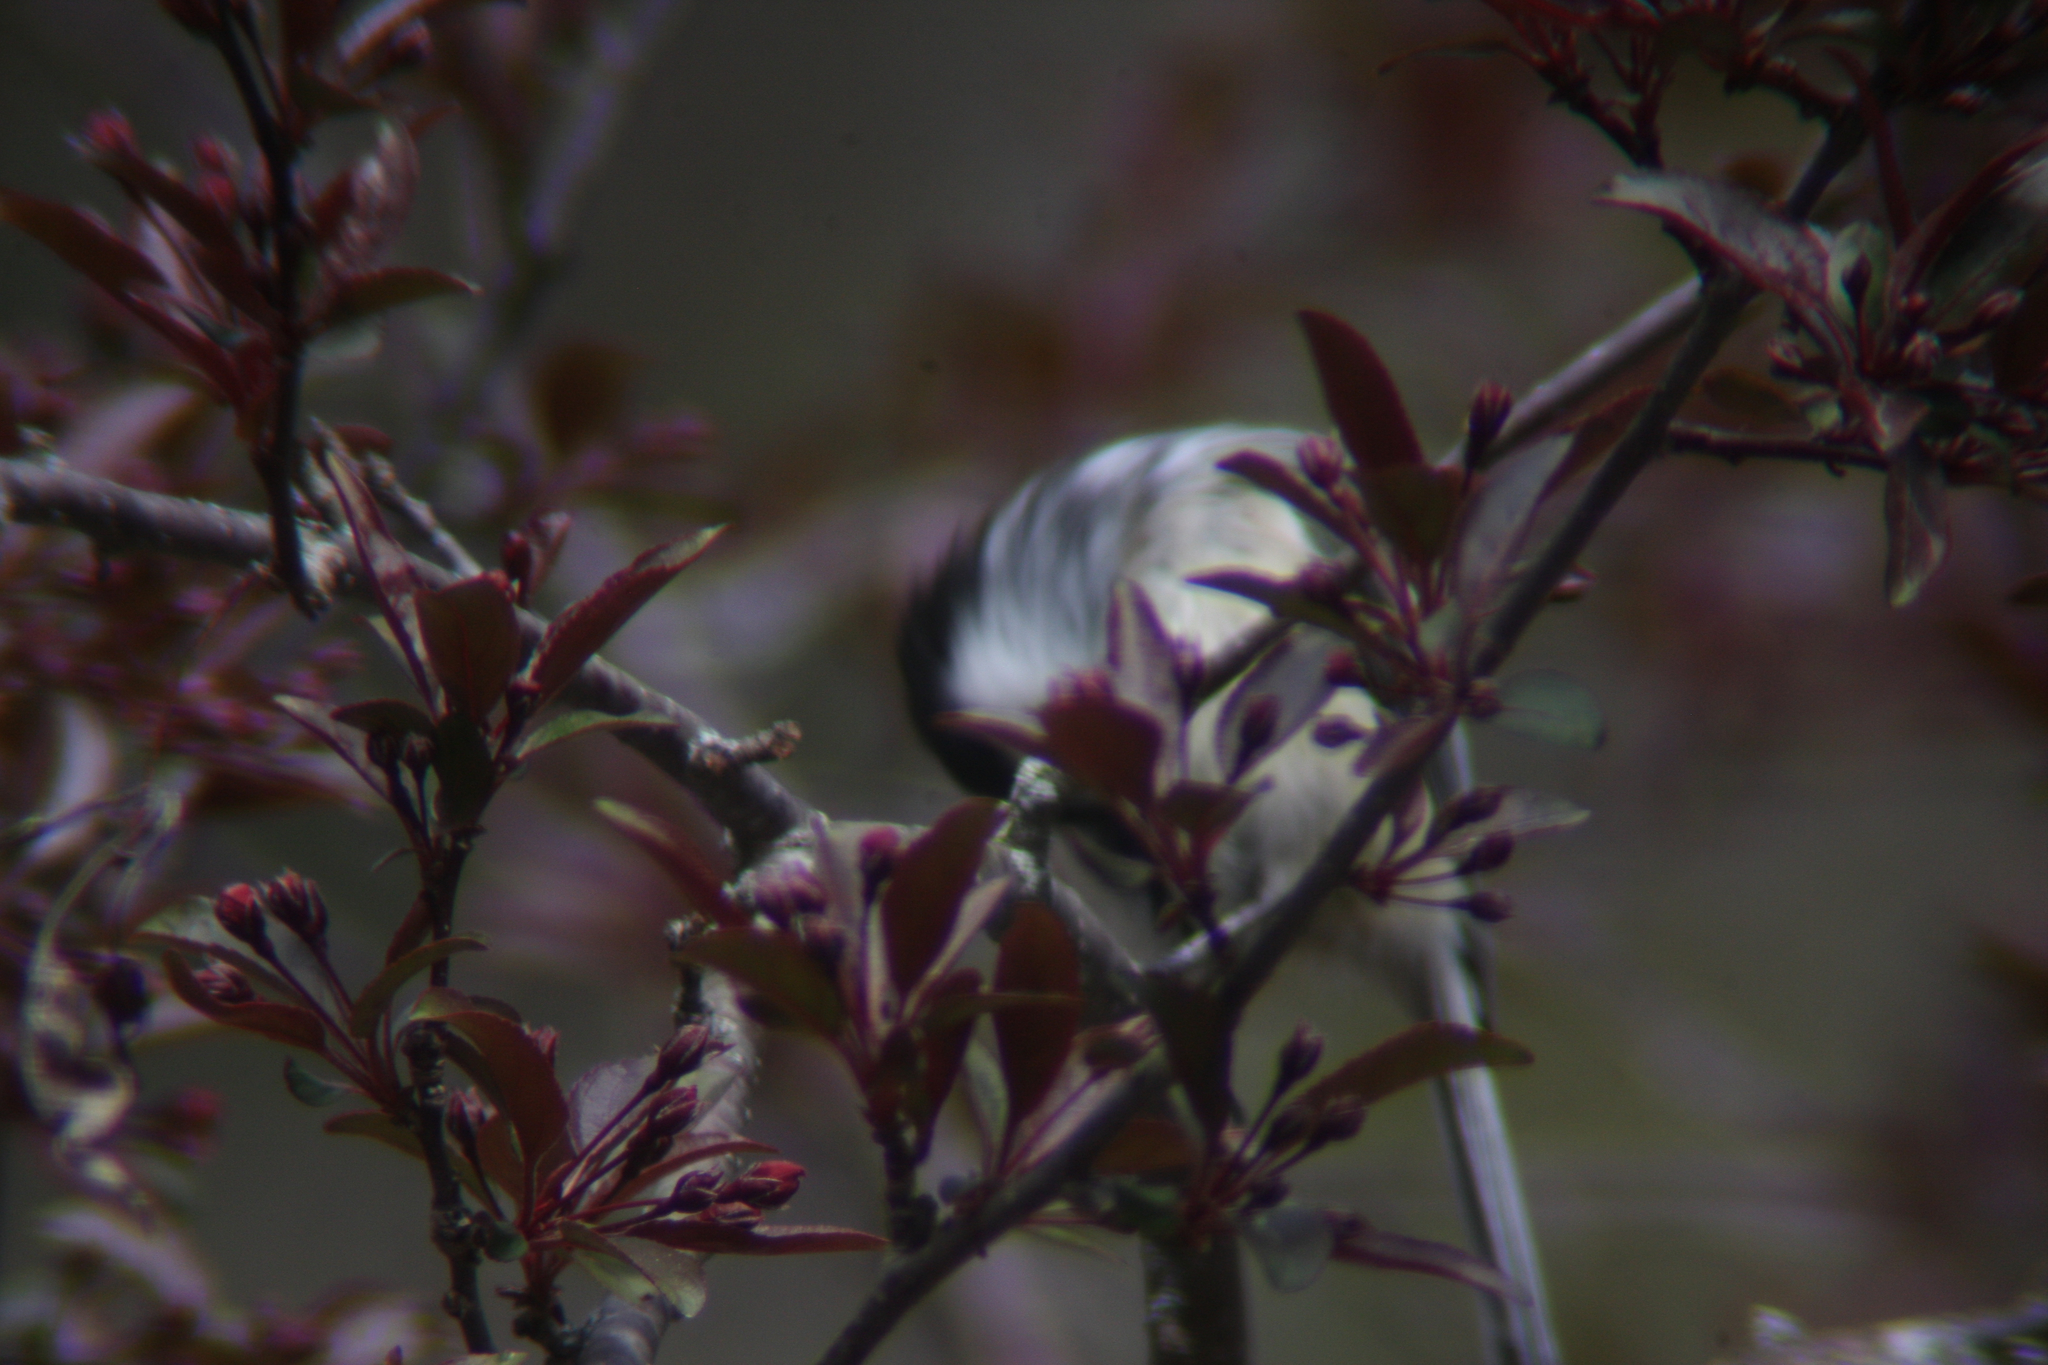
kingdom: Animalia
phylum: Chordata
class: Aves
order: Passeriformes
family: Paridae
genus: Poecile
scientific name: Poecile atricapillus
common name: Black-capped chickadee
